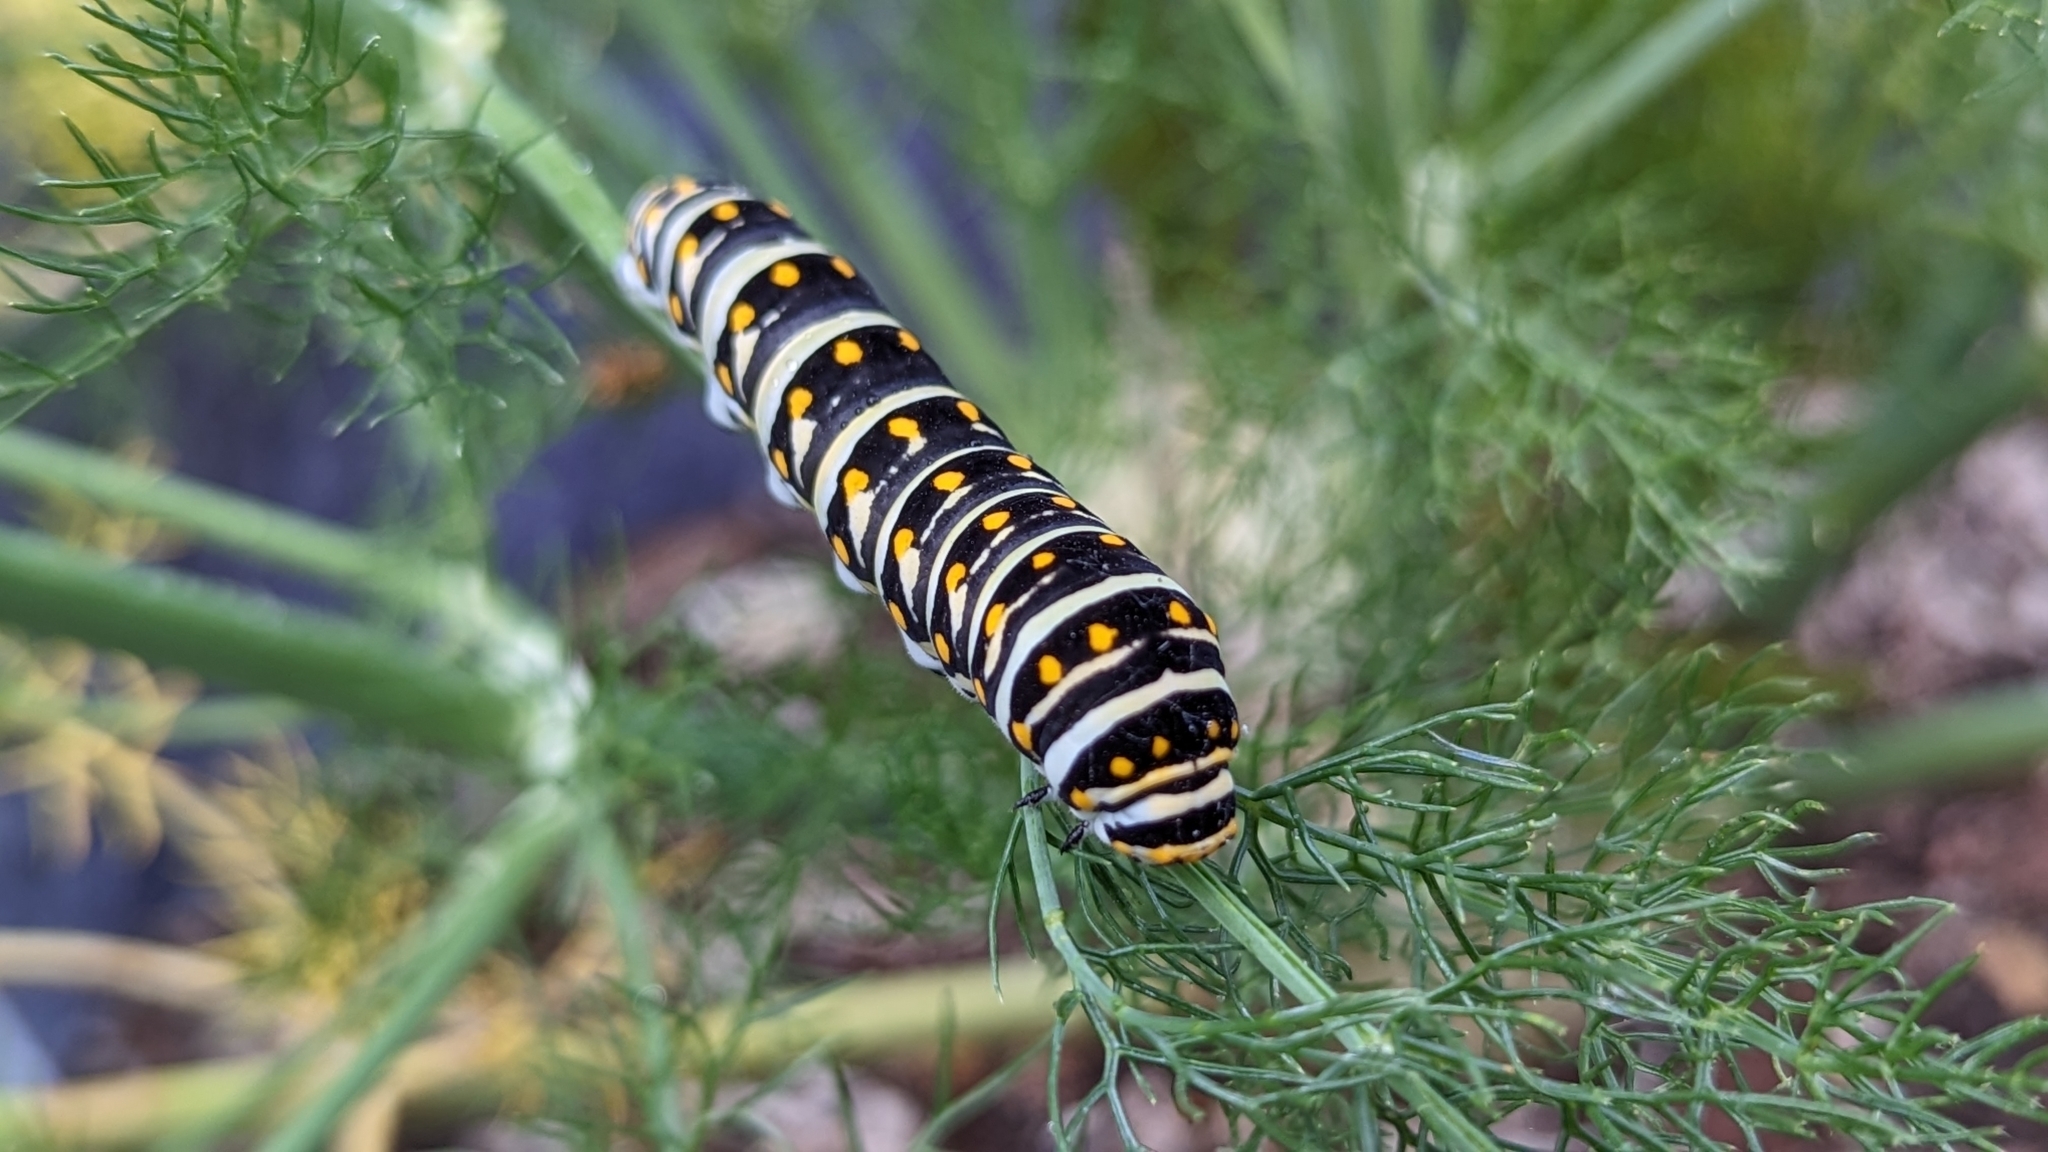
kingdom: Animalia
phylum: Arthropoda
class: Insecta
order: Lepidoptera
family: Papilionidae
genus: Papilio
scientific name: Papilio polyxenes
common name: Black swallowtail
